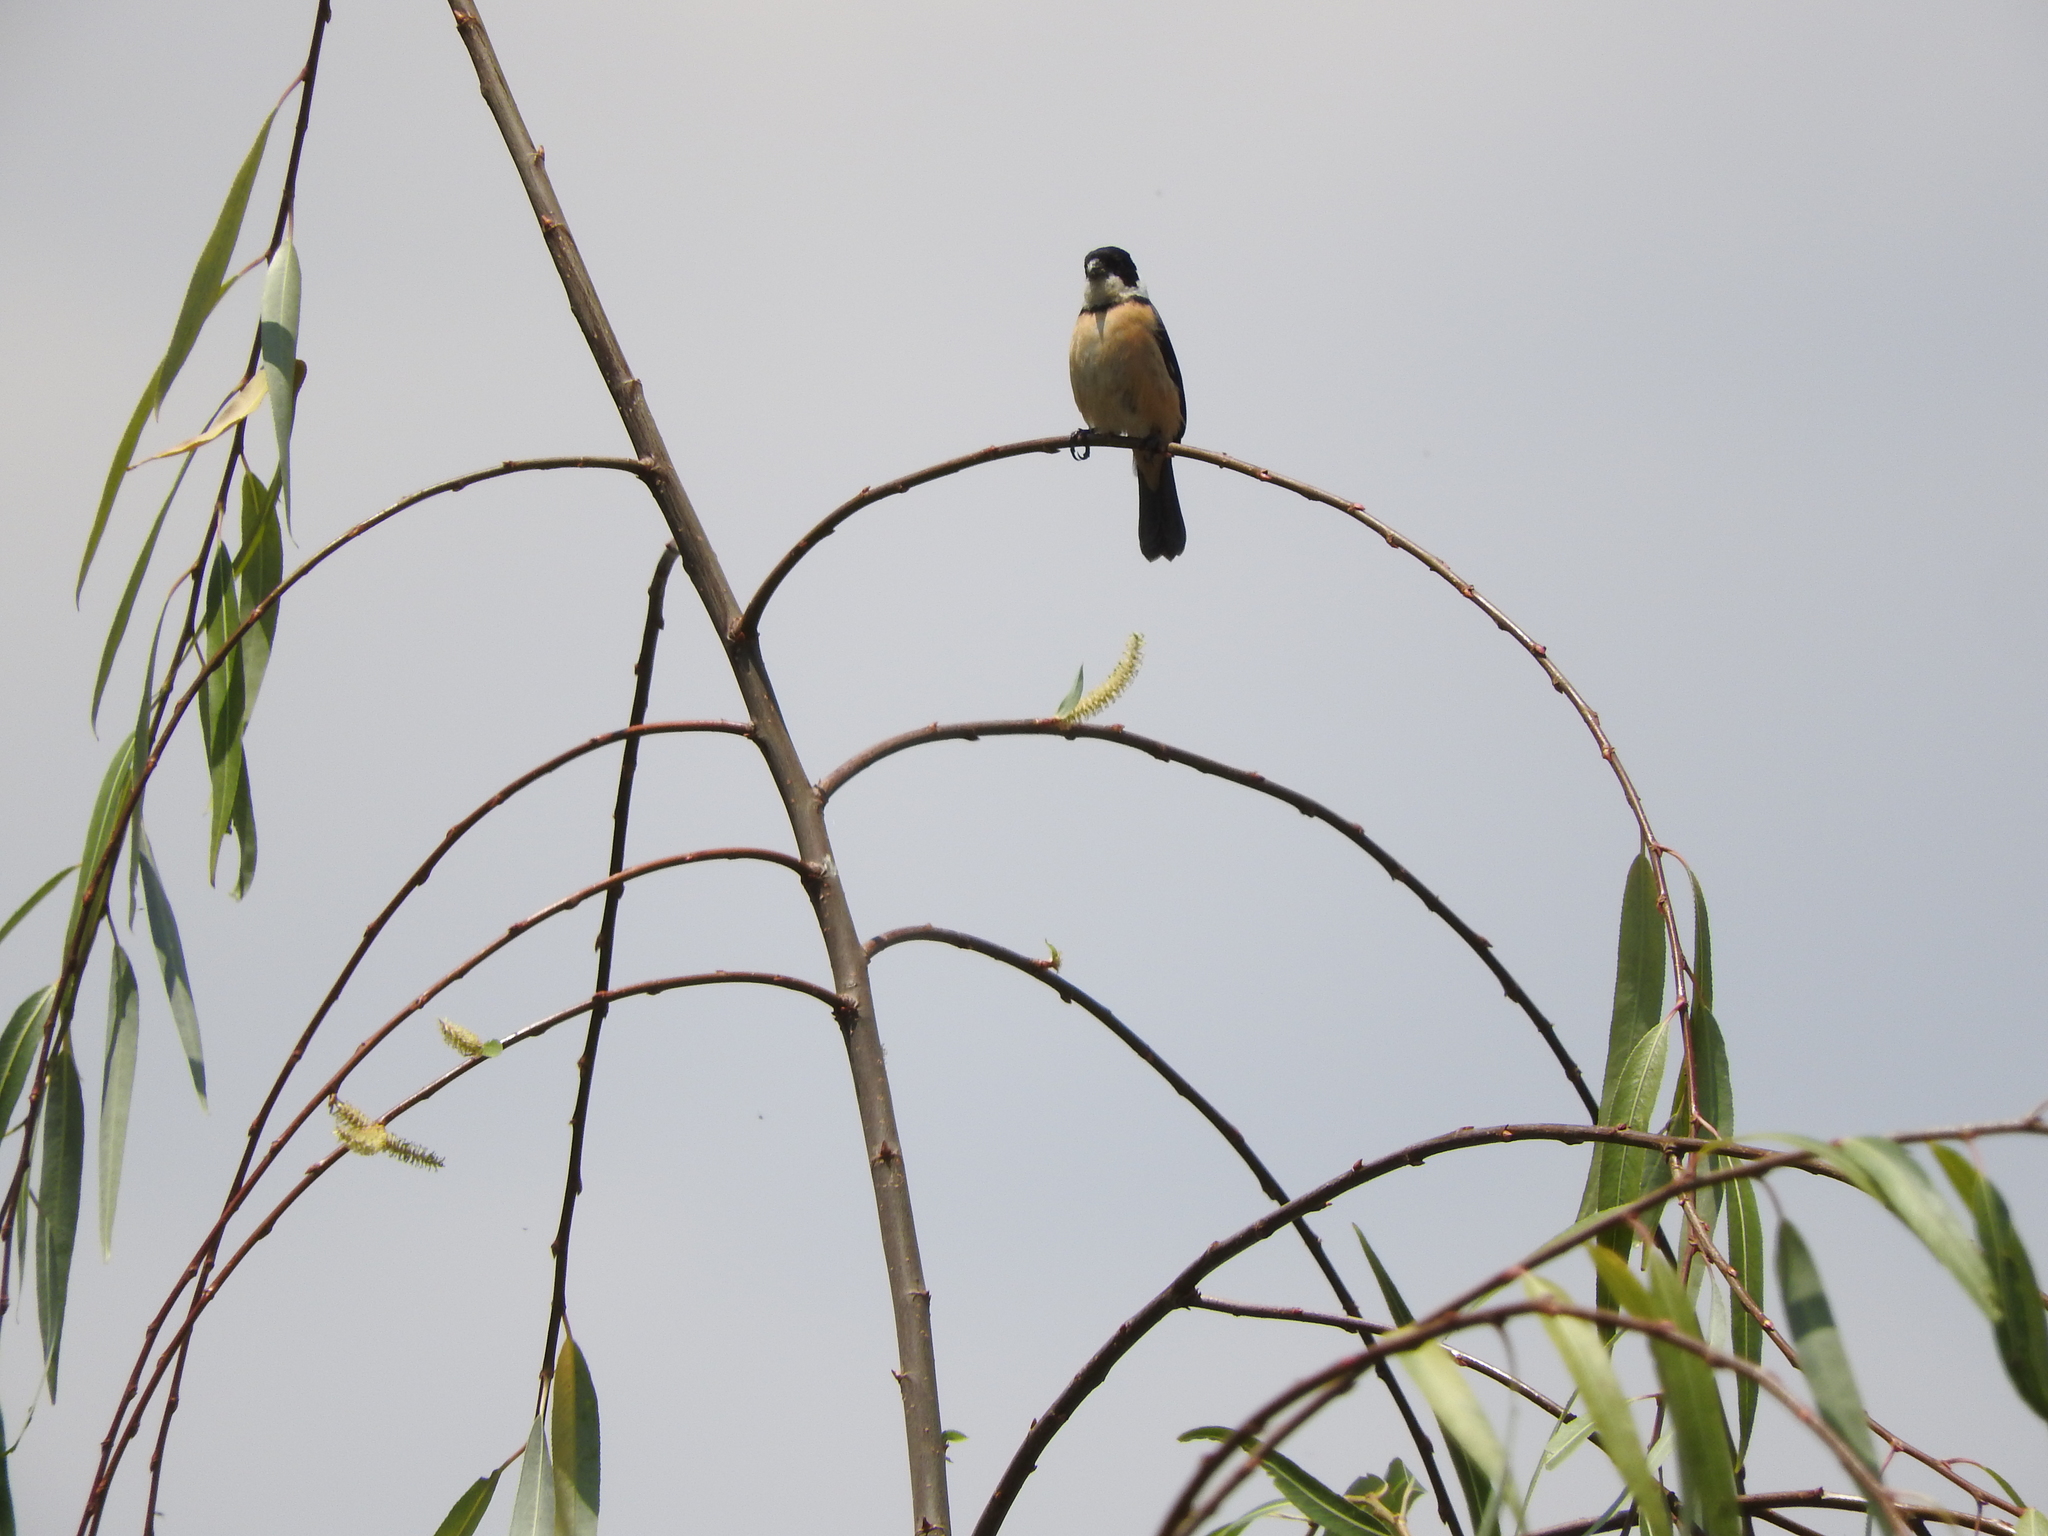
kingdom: Animalia
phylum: Chordata
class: Aves
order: Passeriformes
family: Thraupidae
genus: Sporophila
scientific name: Sporophila torqueola
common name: White-collared seedeater
